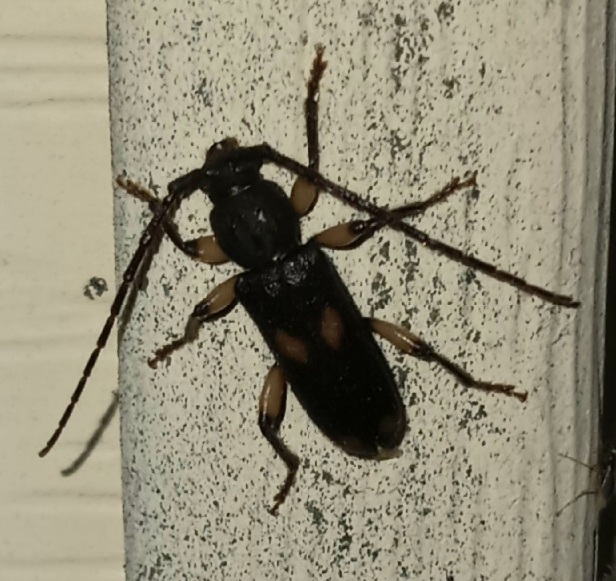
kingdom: Animalia
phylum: Arthropoda
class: Insecta
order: Coleoptera
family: Cerambycidae
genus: Tylonotus
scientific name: Tylonotus bimaculatus
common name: Ash and privet borer
